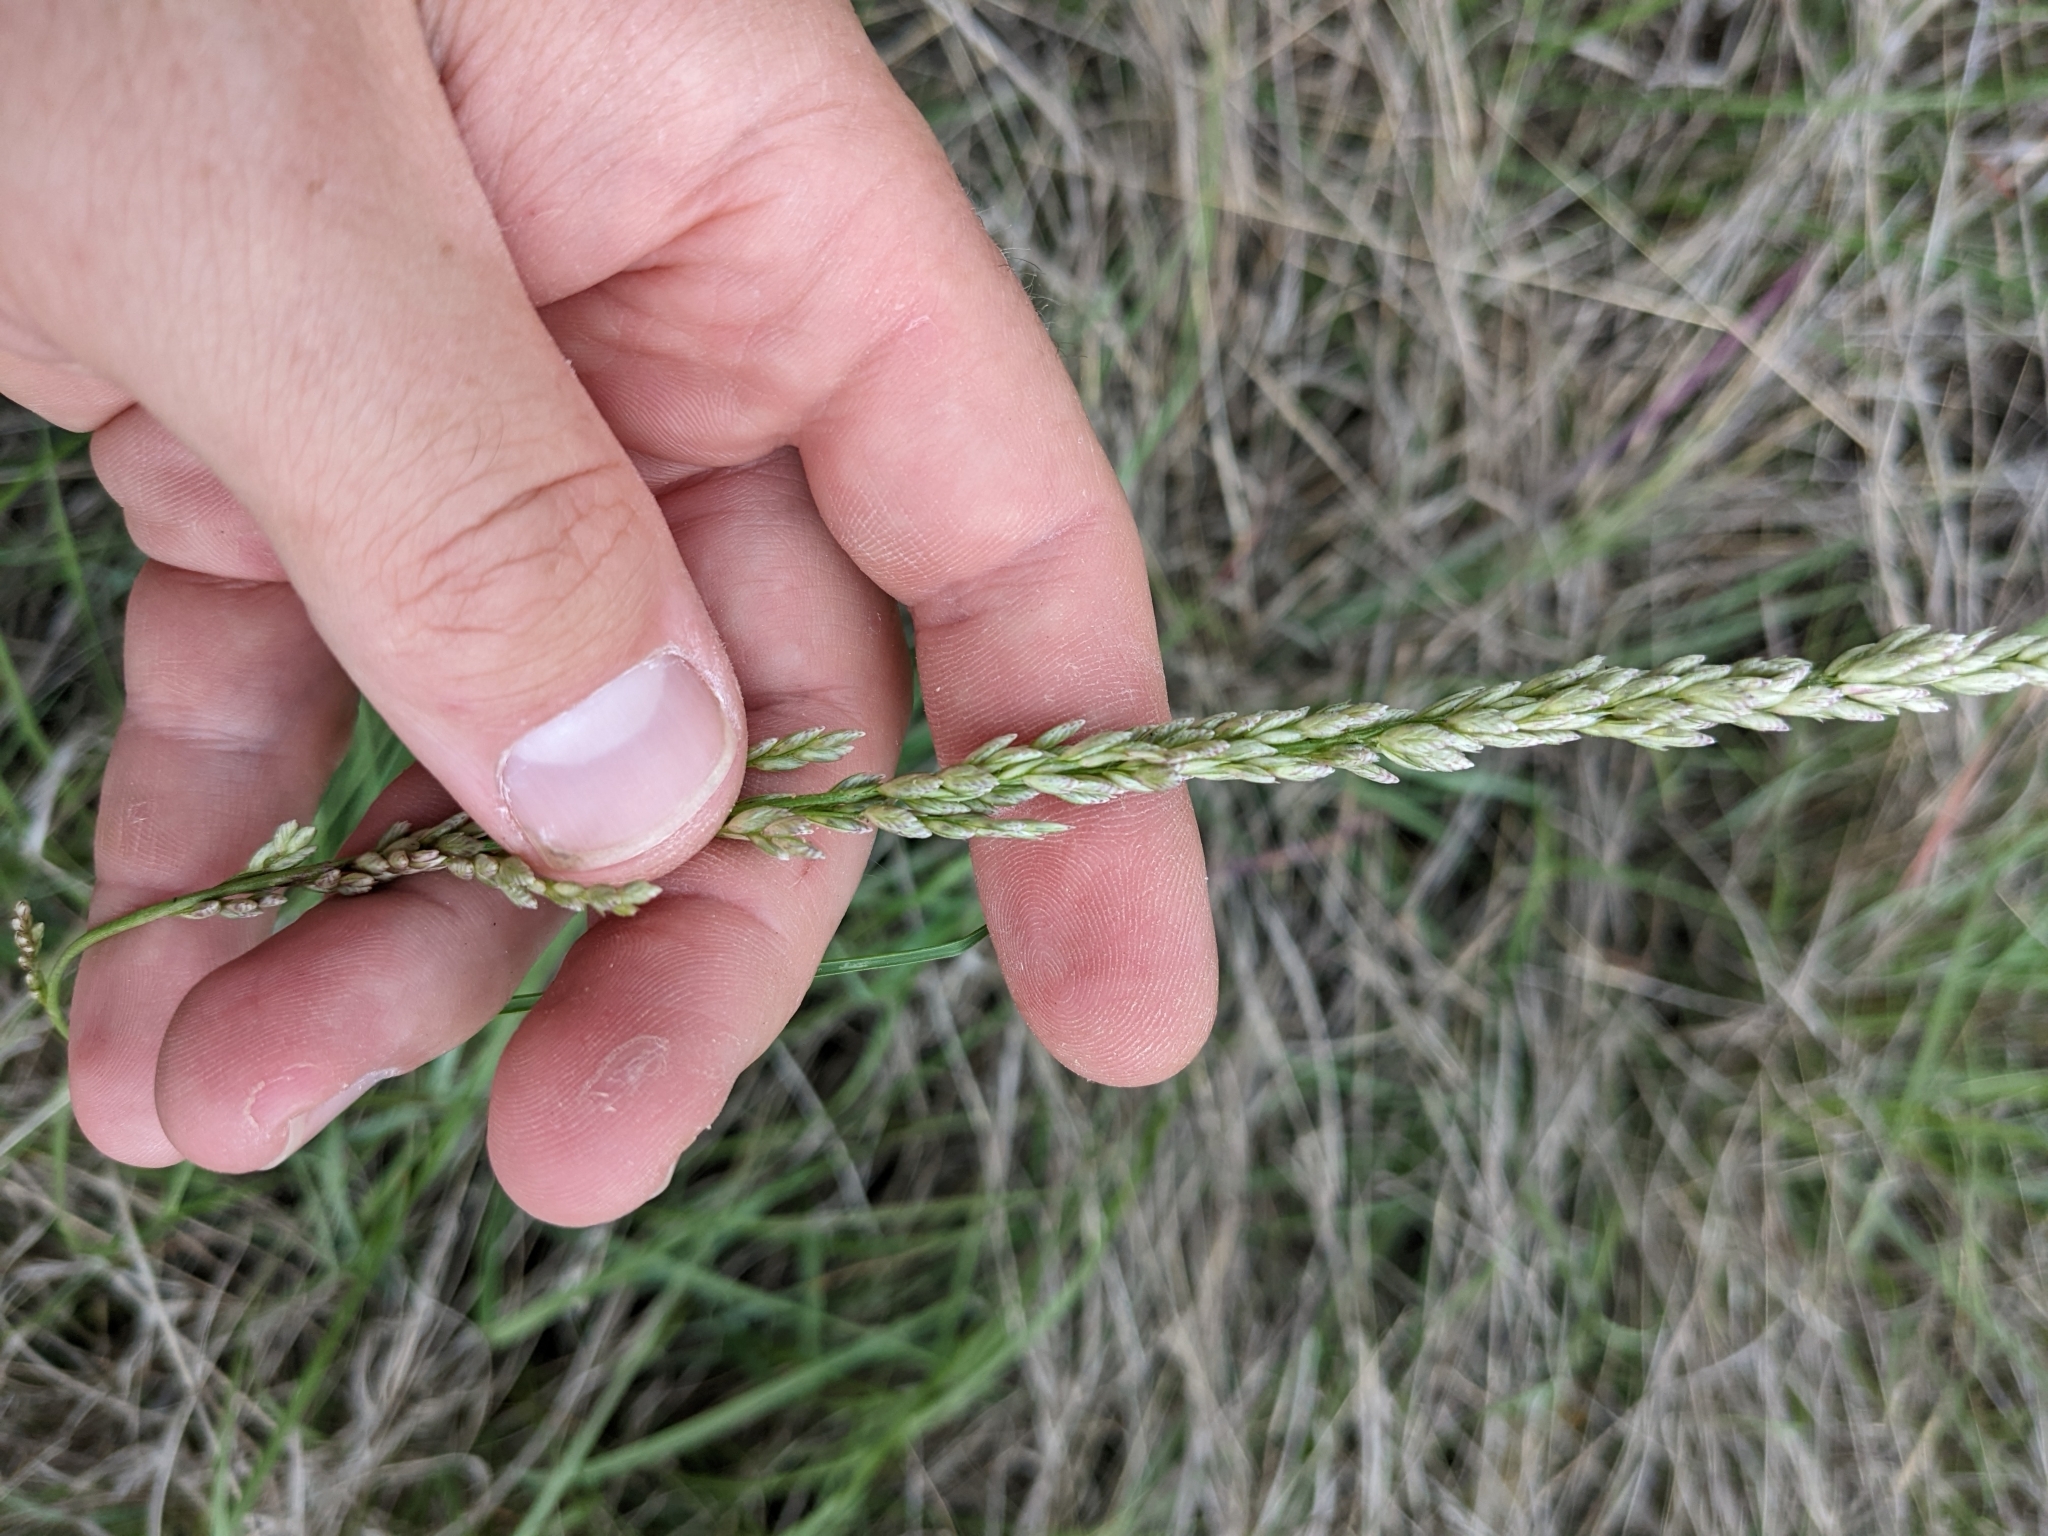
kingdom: Plantae
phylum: Tracheophyta
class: Liliopsida
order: Poales
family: Poaceae
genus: Tridens
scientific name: Tridens albescens
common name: White tridens
